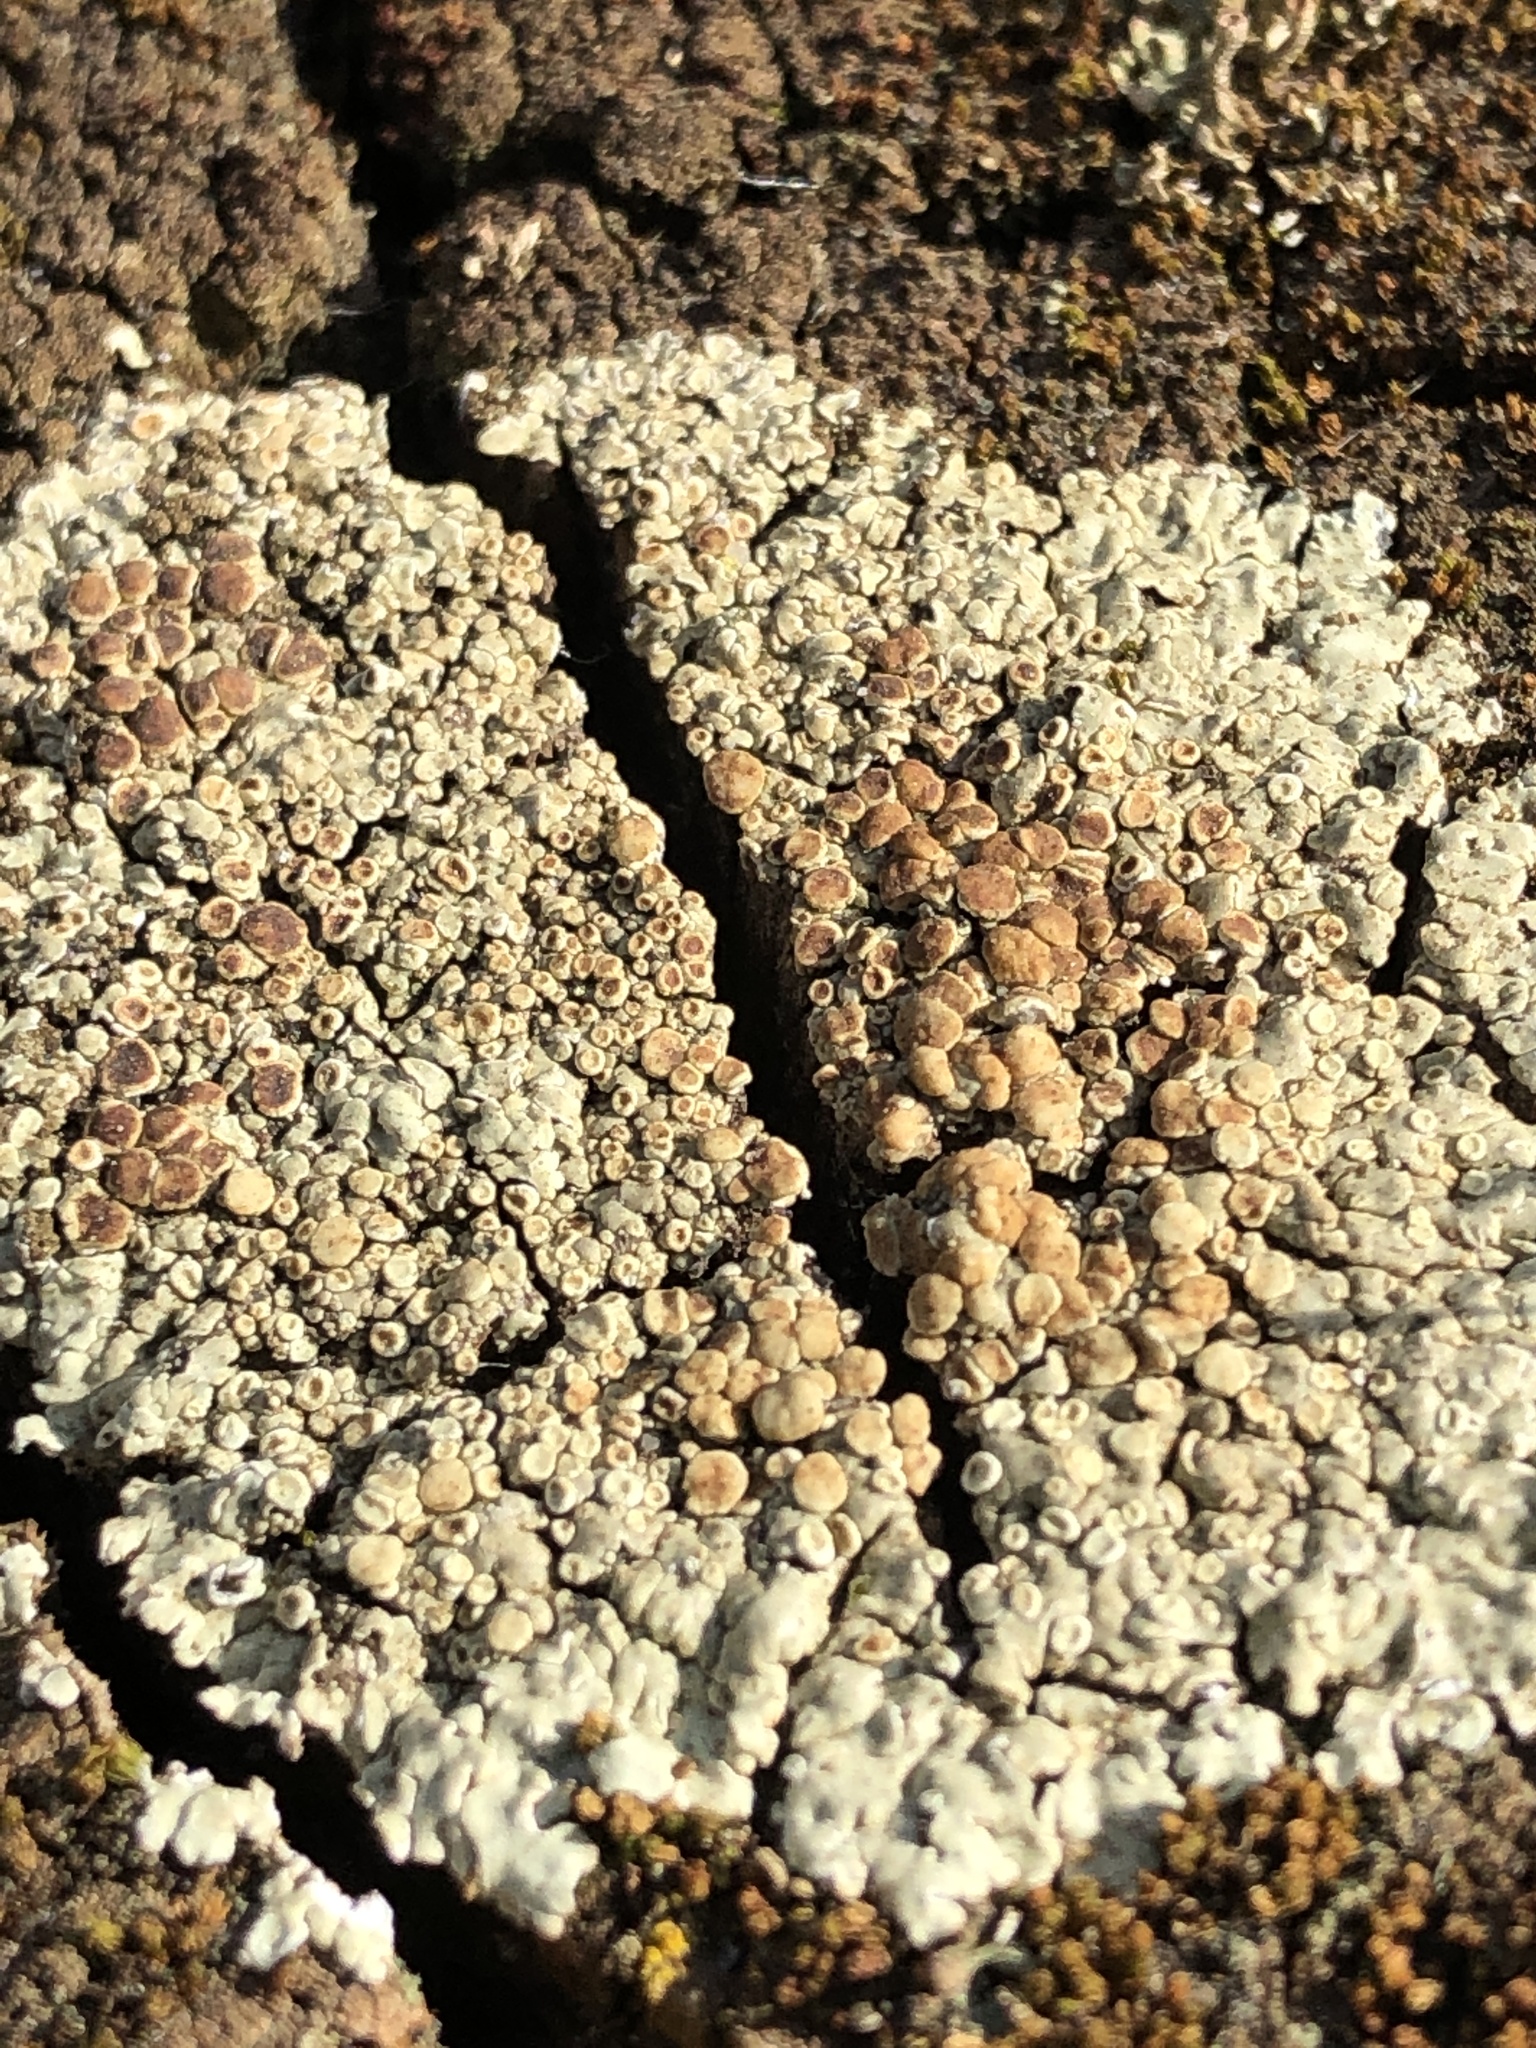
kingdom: Fungi
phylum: Ascomycota
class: Lecanoromycetes
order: Lecanorales
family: Lecanoraceae
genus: Protoparmeliopsis
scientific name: Protoparmeliopsis muralis
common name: Stonewall rim lichen
